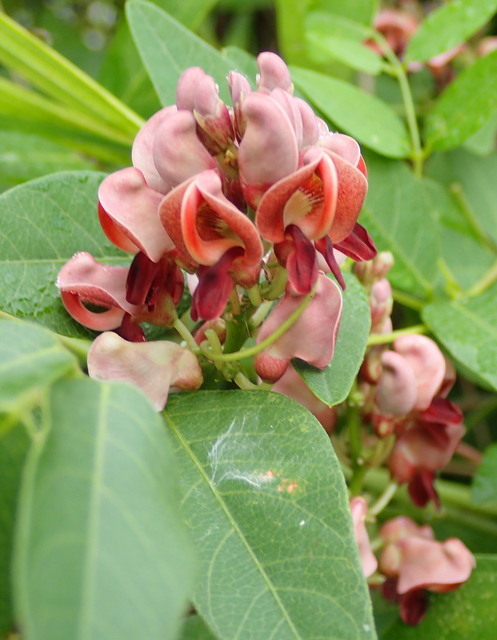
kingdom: Plantae
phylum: Tracheophyta
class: Magnoliopsida
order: Fabales
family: Fabaceae
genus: Apios
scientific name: Apios americana
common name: American potato-bean
